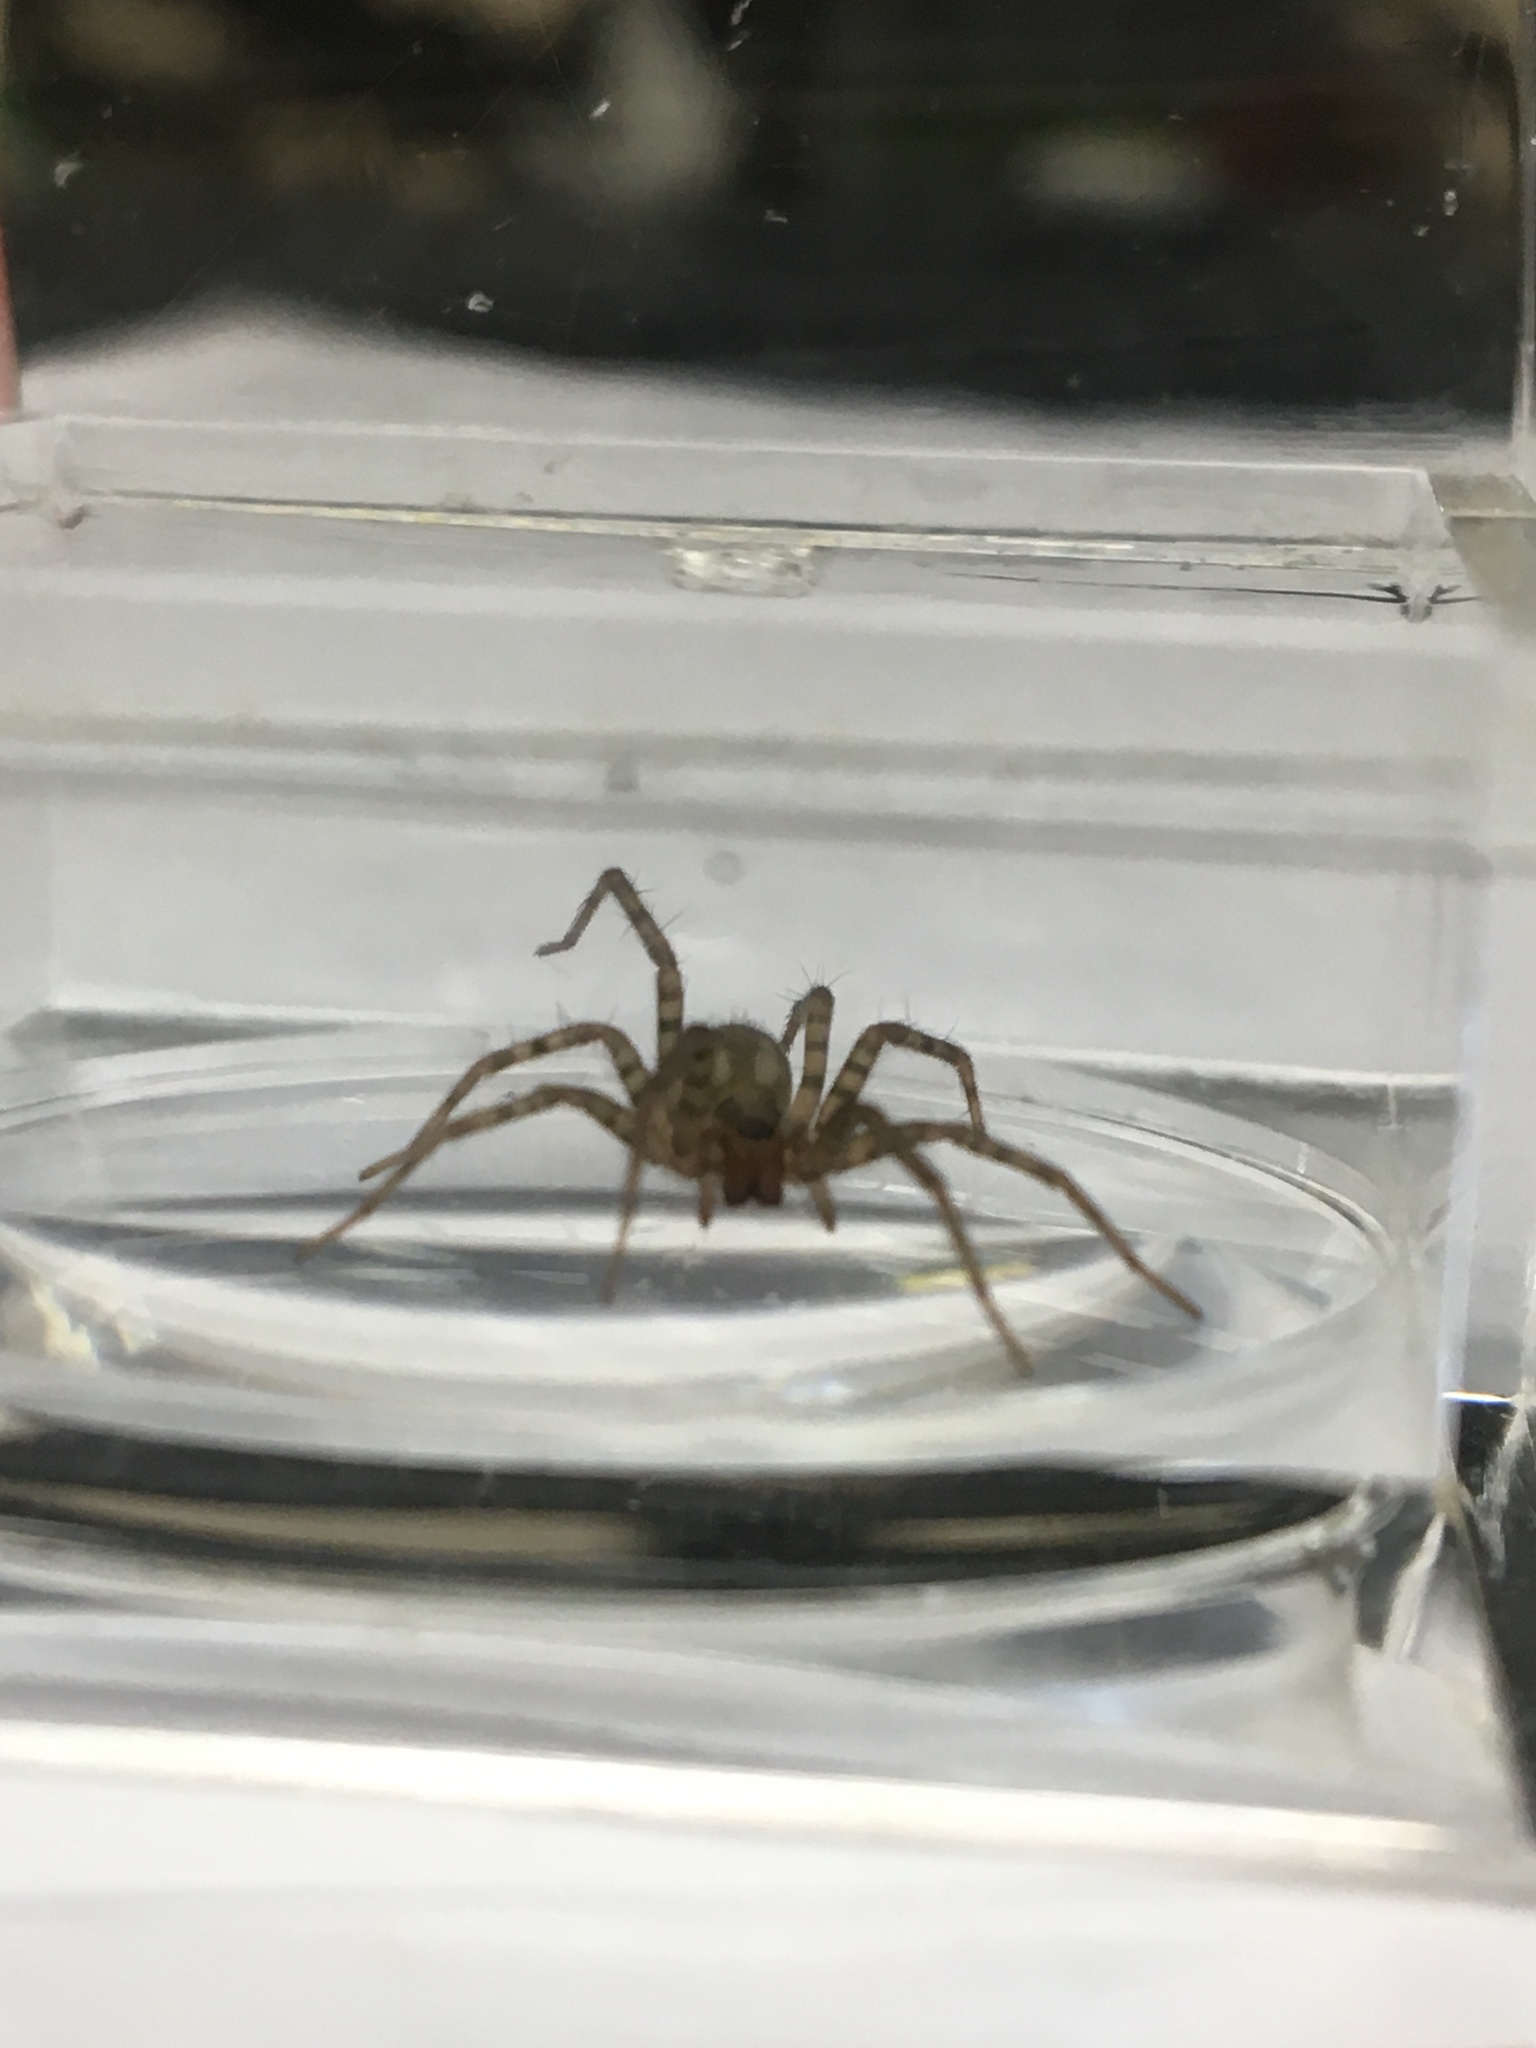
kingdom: Animalia
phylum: Arthropoda
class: Arachnida
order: Araneae
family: Agelenidae
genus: Tegenaria
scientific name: Tegenaria domestica
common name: Barn funnel weaver
